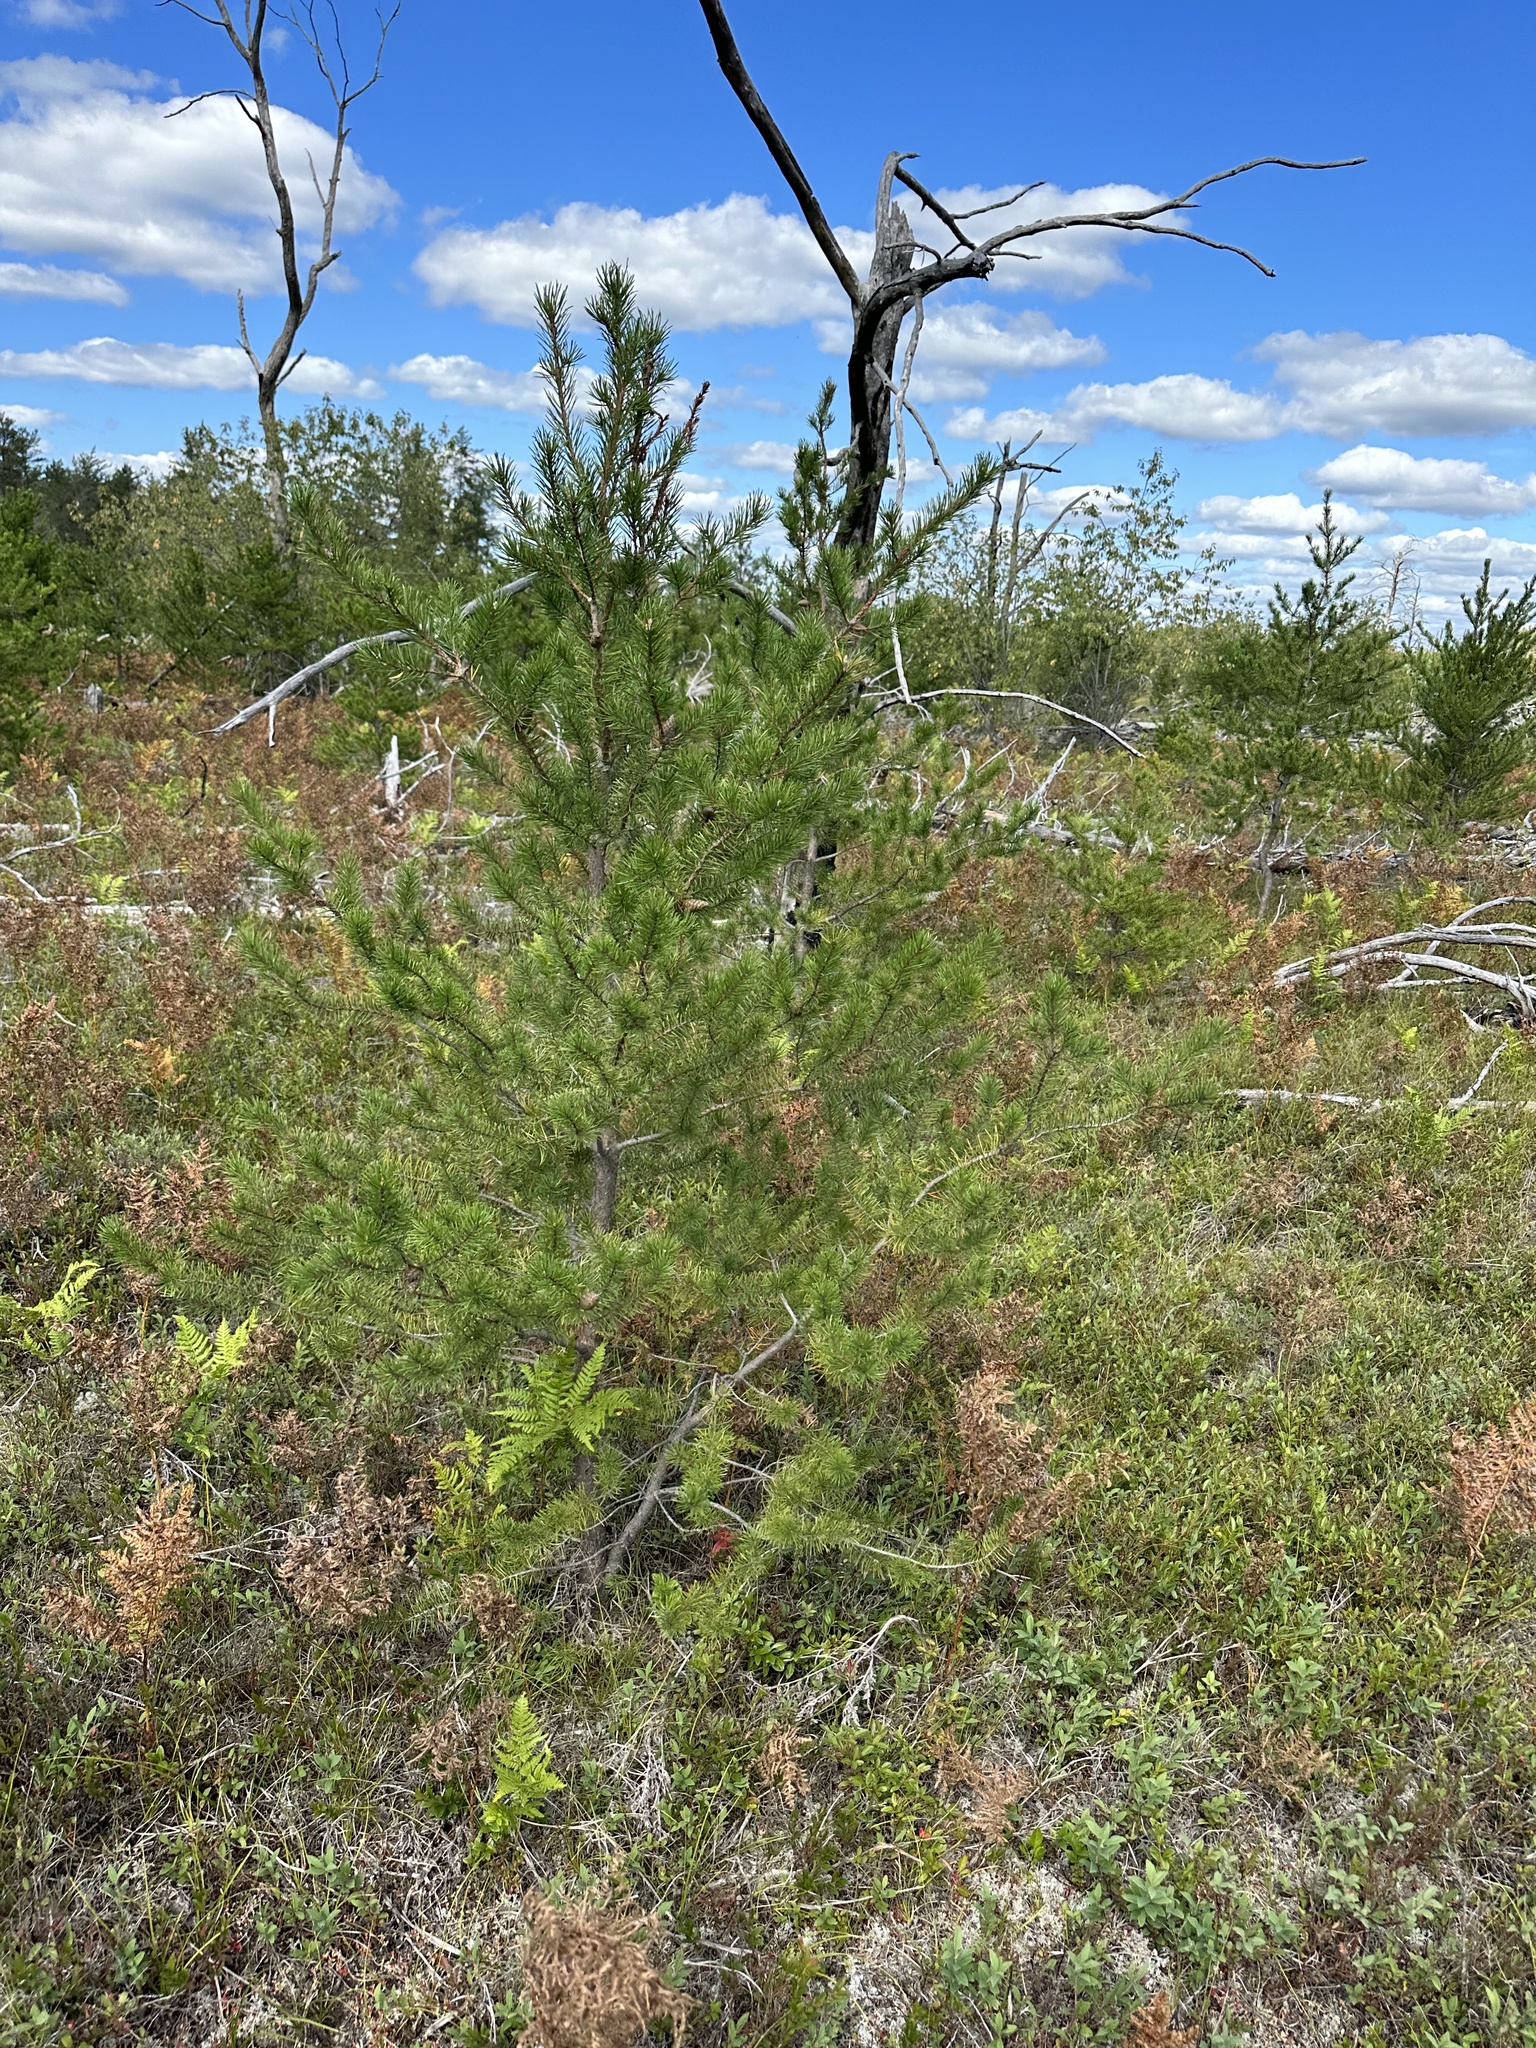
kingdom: Plantae
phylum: Tracheophyta
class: Pinopsida
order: Pinales
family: Pinaceae
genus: Pinus
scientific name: Pinus banksiana
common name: Jack pine
